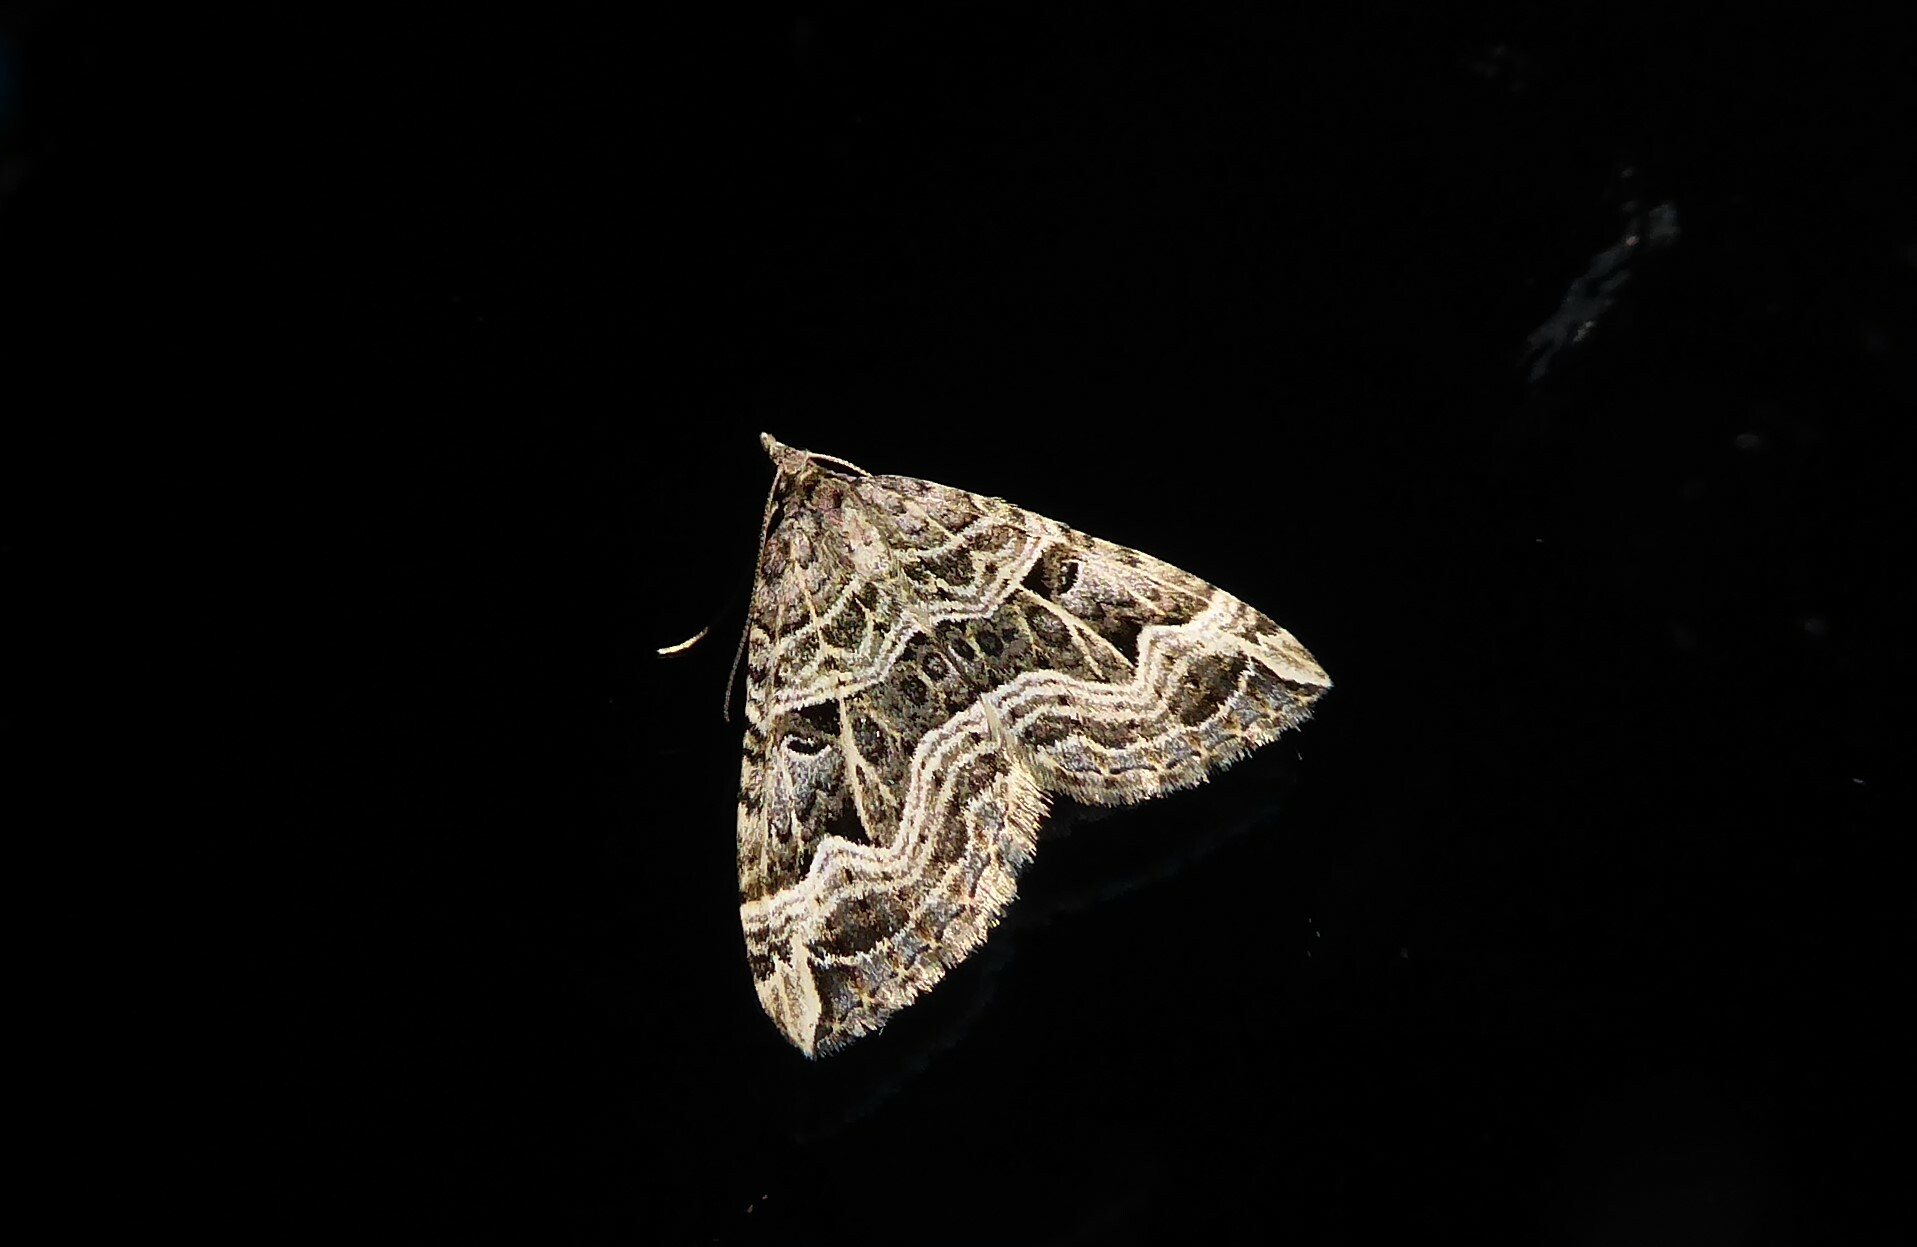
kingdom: Animalia
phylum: Arthropoda
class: Insecta
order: Lepidoptera
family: Geometridae
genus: Xanthorhoe
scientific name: Xanthorhoe semifissata
